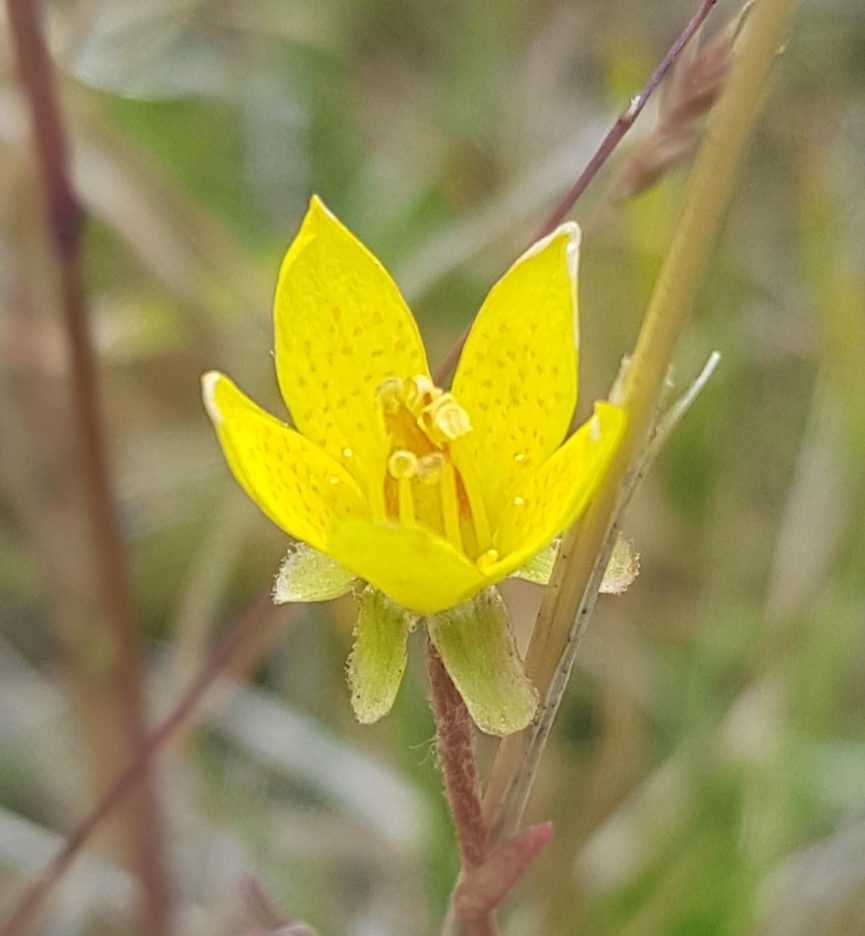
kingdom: Plantae
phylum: Tracheophyta
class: Magnoliopsida
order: Saxifragales
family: Saxifragaceae
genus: Saxifraga
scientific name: Saxifraga hirculus
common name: Yellow marsh saxifrage
